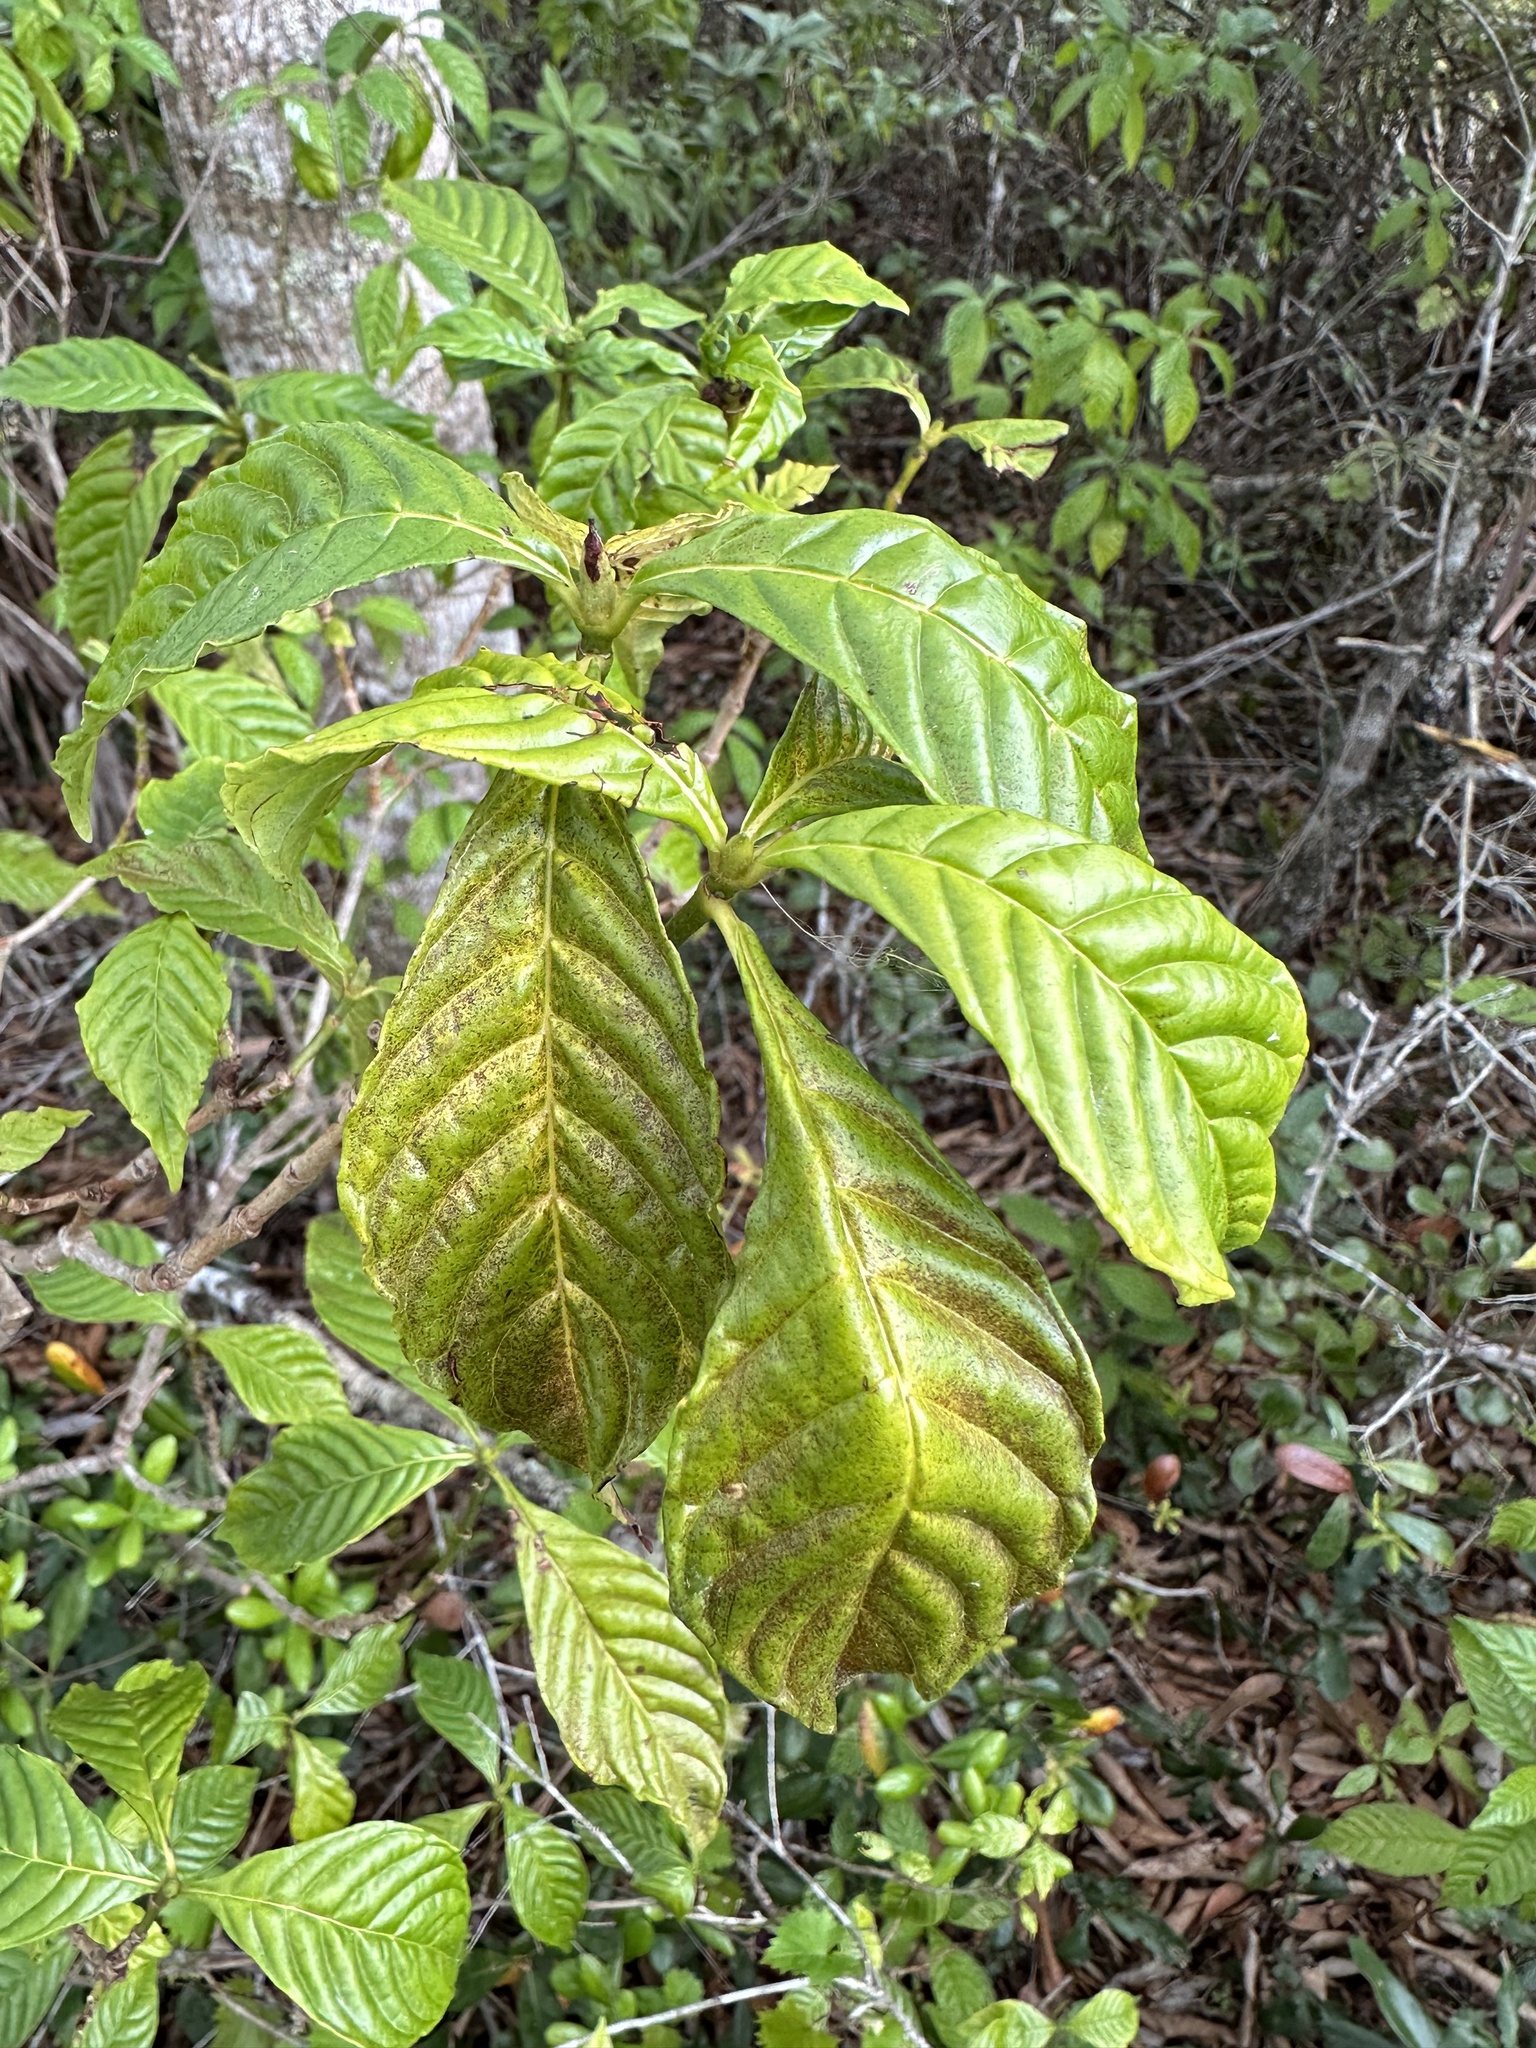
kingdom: Plantae
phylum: Tracheophyta
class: Magnoliopsida
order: Gentianales
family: Rubiaceae
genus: Psychotria
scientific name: Psychotria nervosa
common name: Bastard cankerberry
